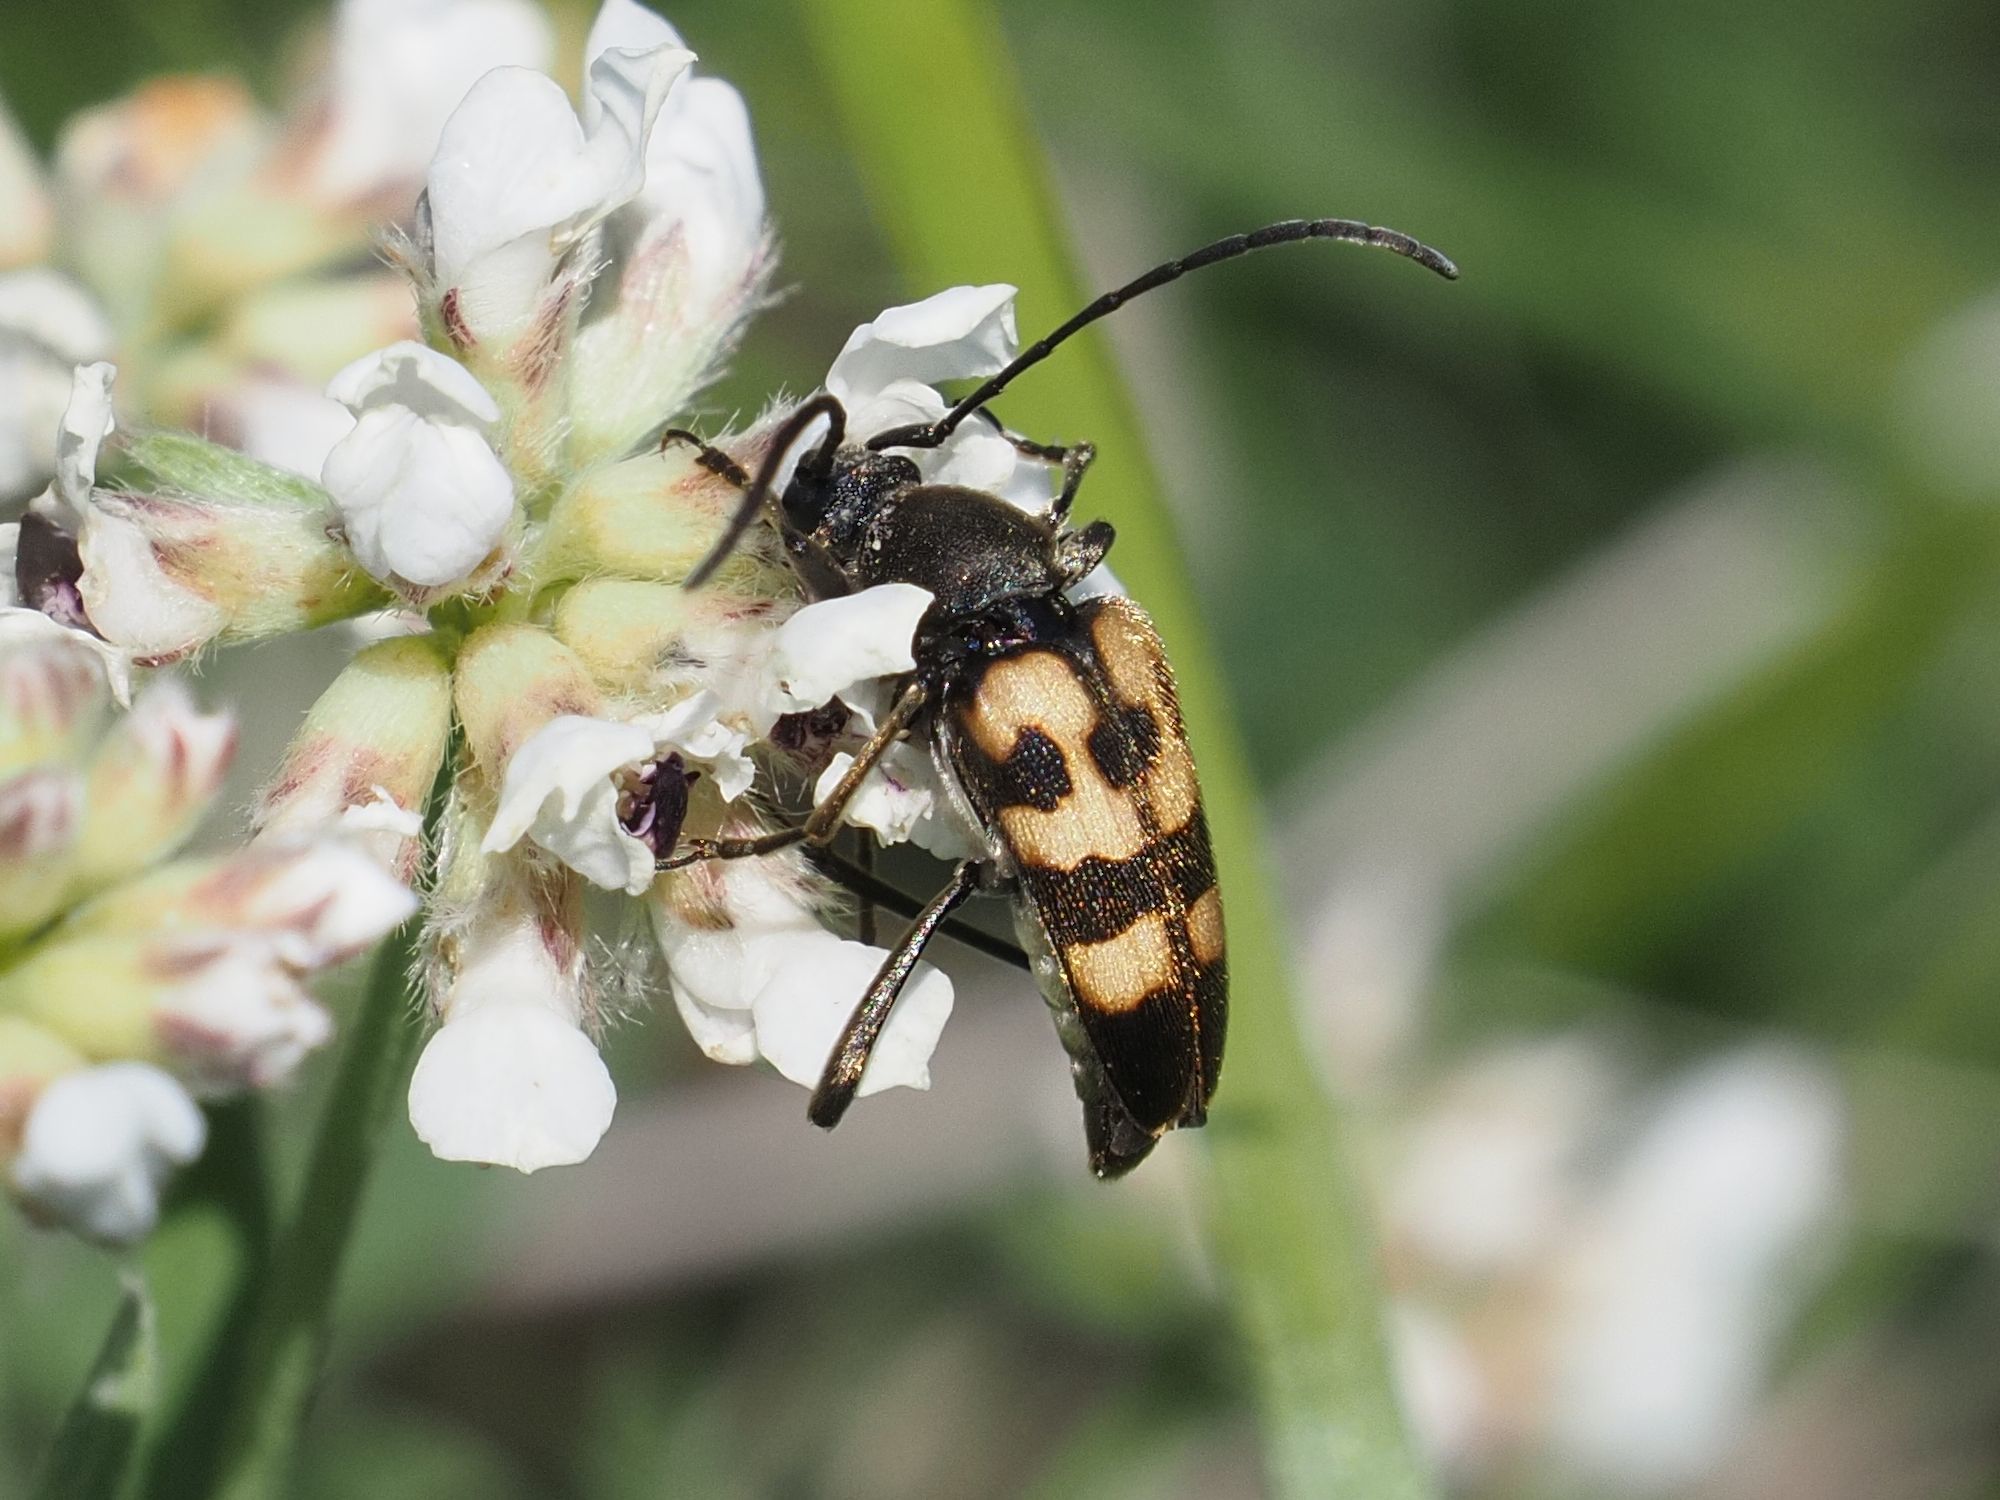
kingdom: Animalia
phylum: Arthropoda
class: Insecta
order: Coleoptera
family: Cerambycidae
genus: Pachytodes
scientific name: Pachytodes
